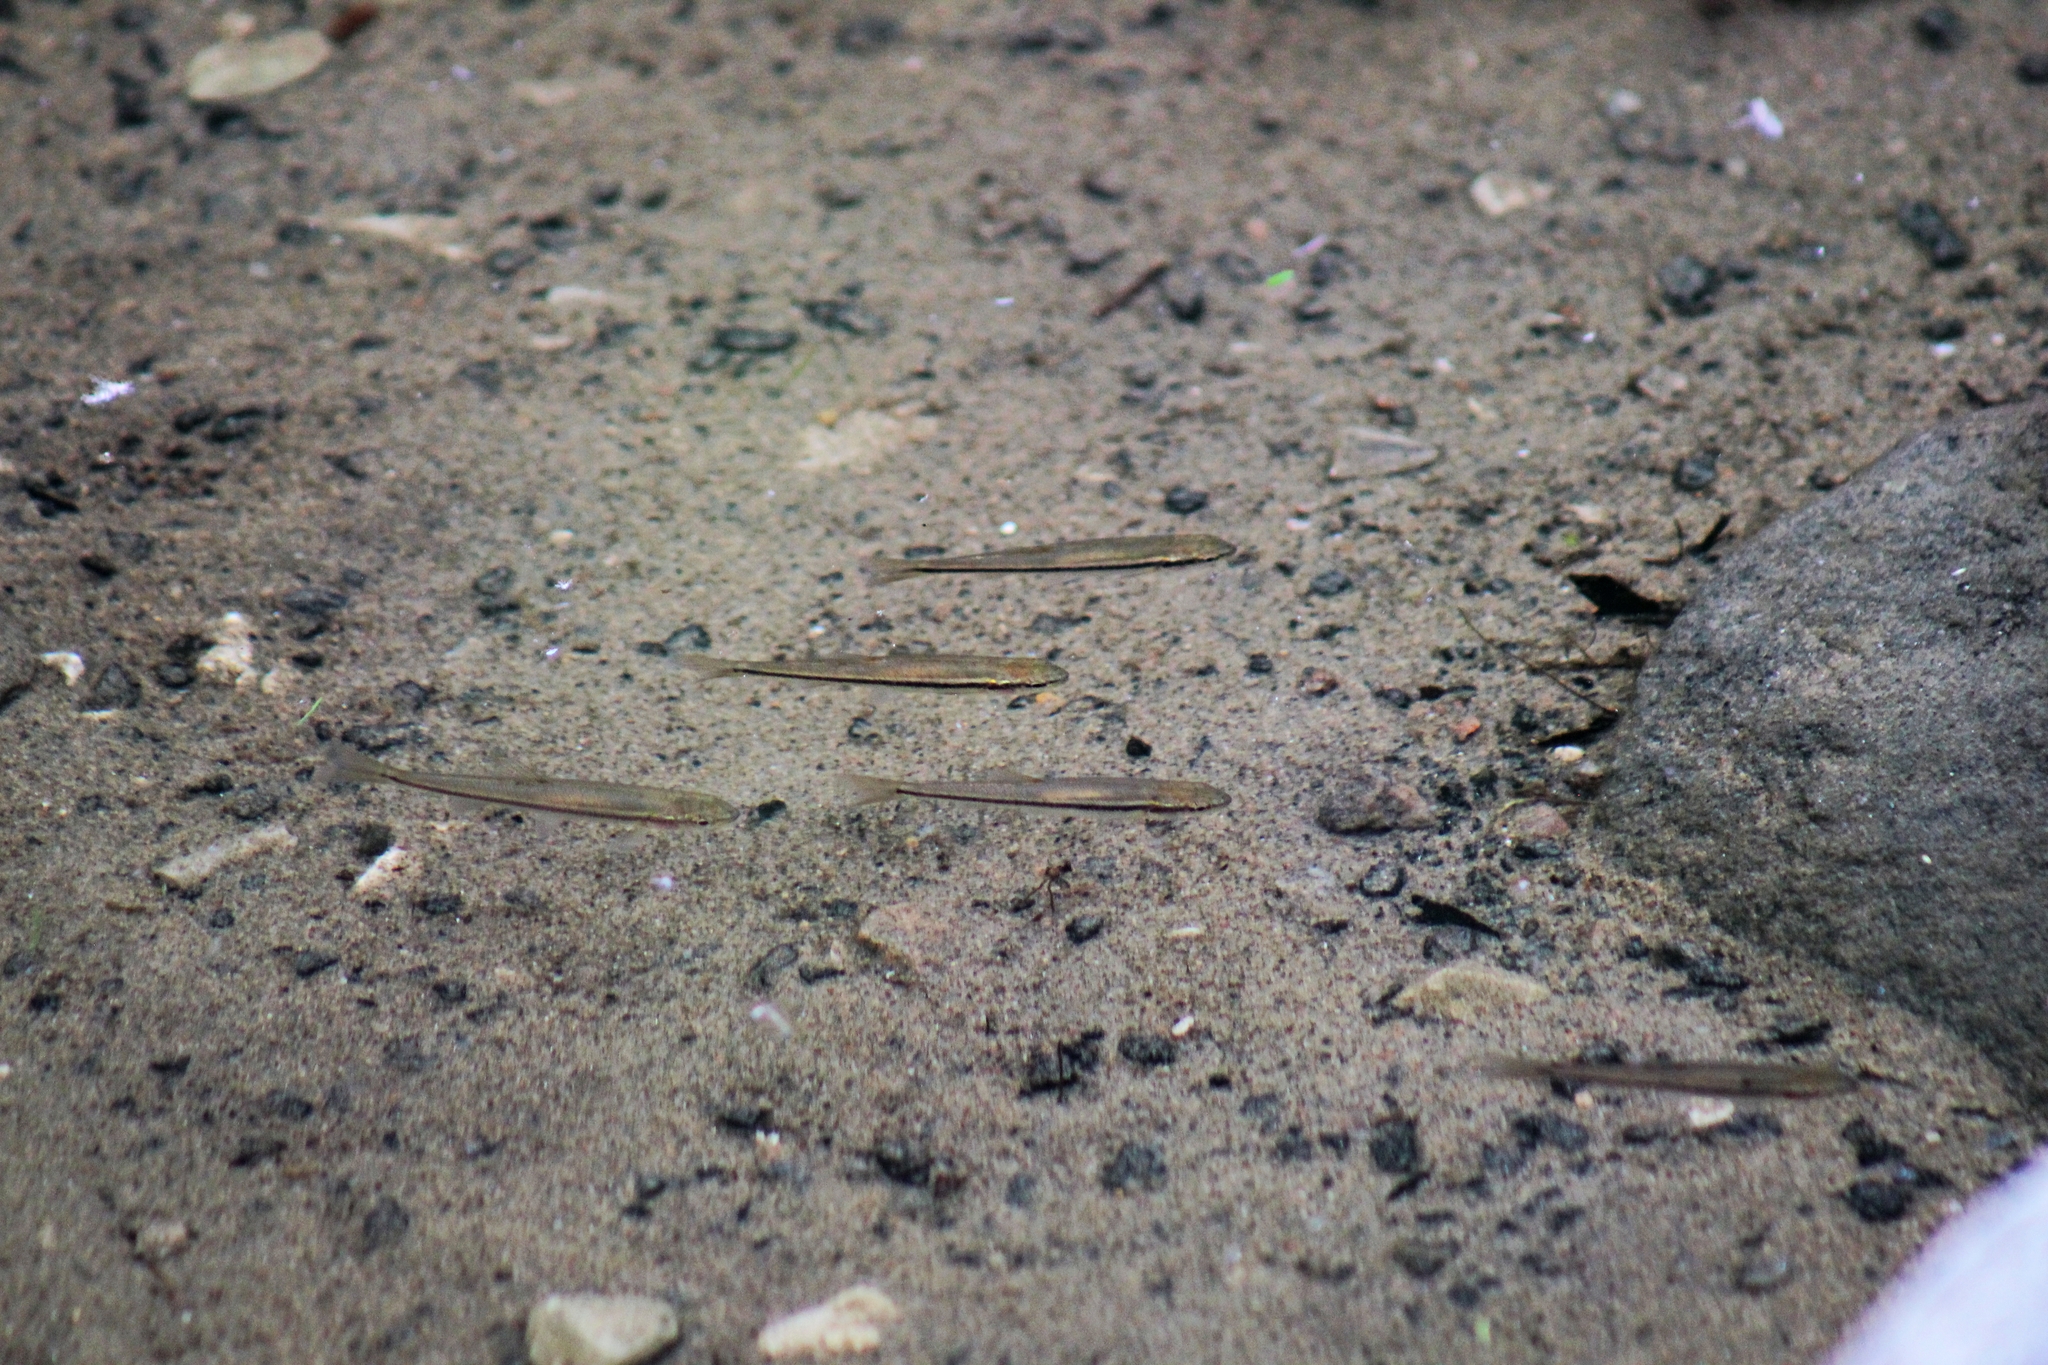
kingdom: Animalia
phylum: Chordata
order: Cypriniformes
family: Cyprinidae
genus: Semotilus
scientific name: Semotilus atromaculatus
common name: Creek chub
